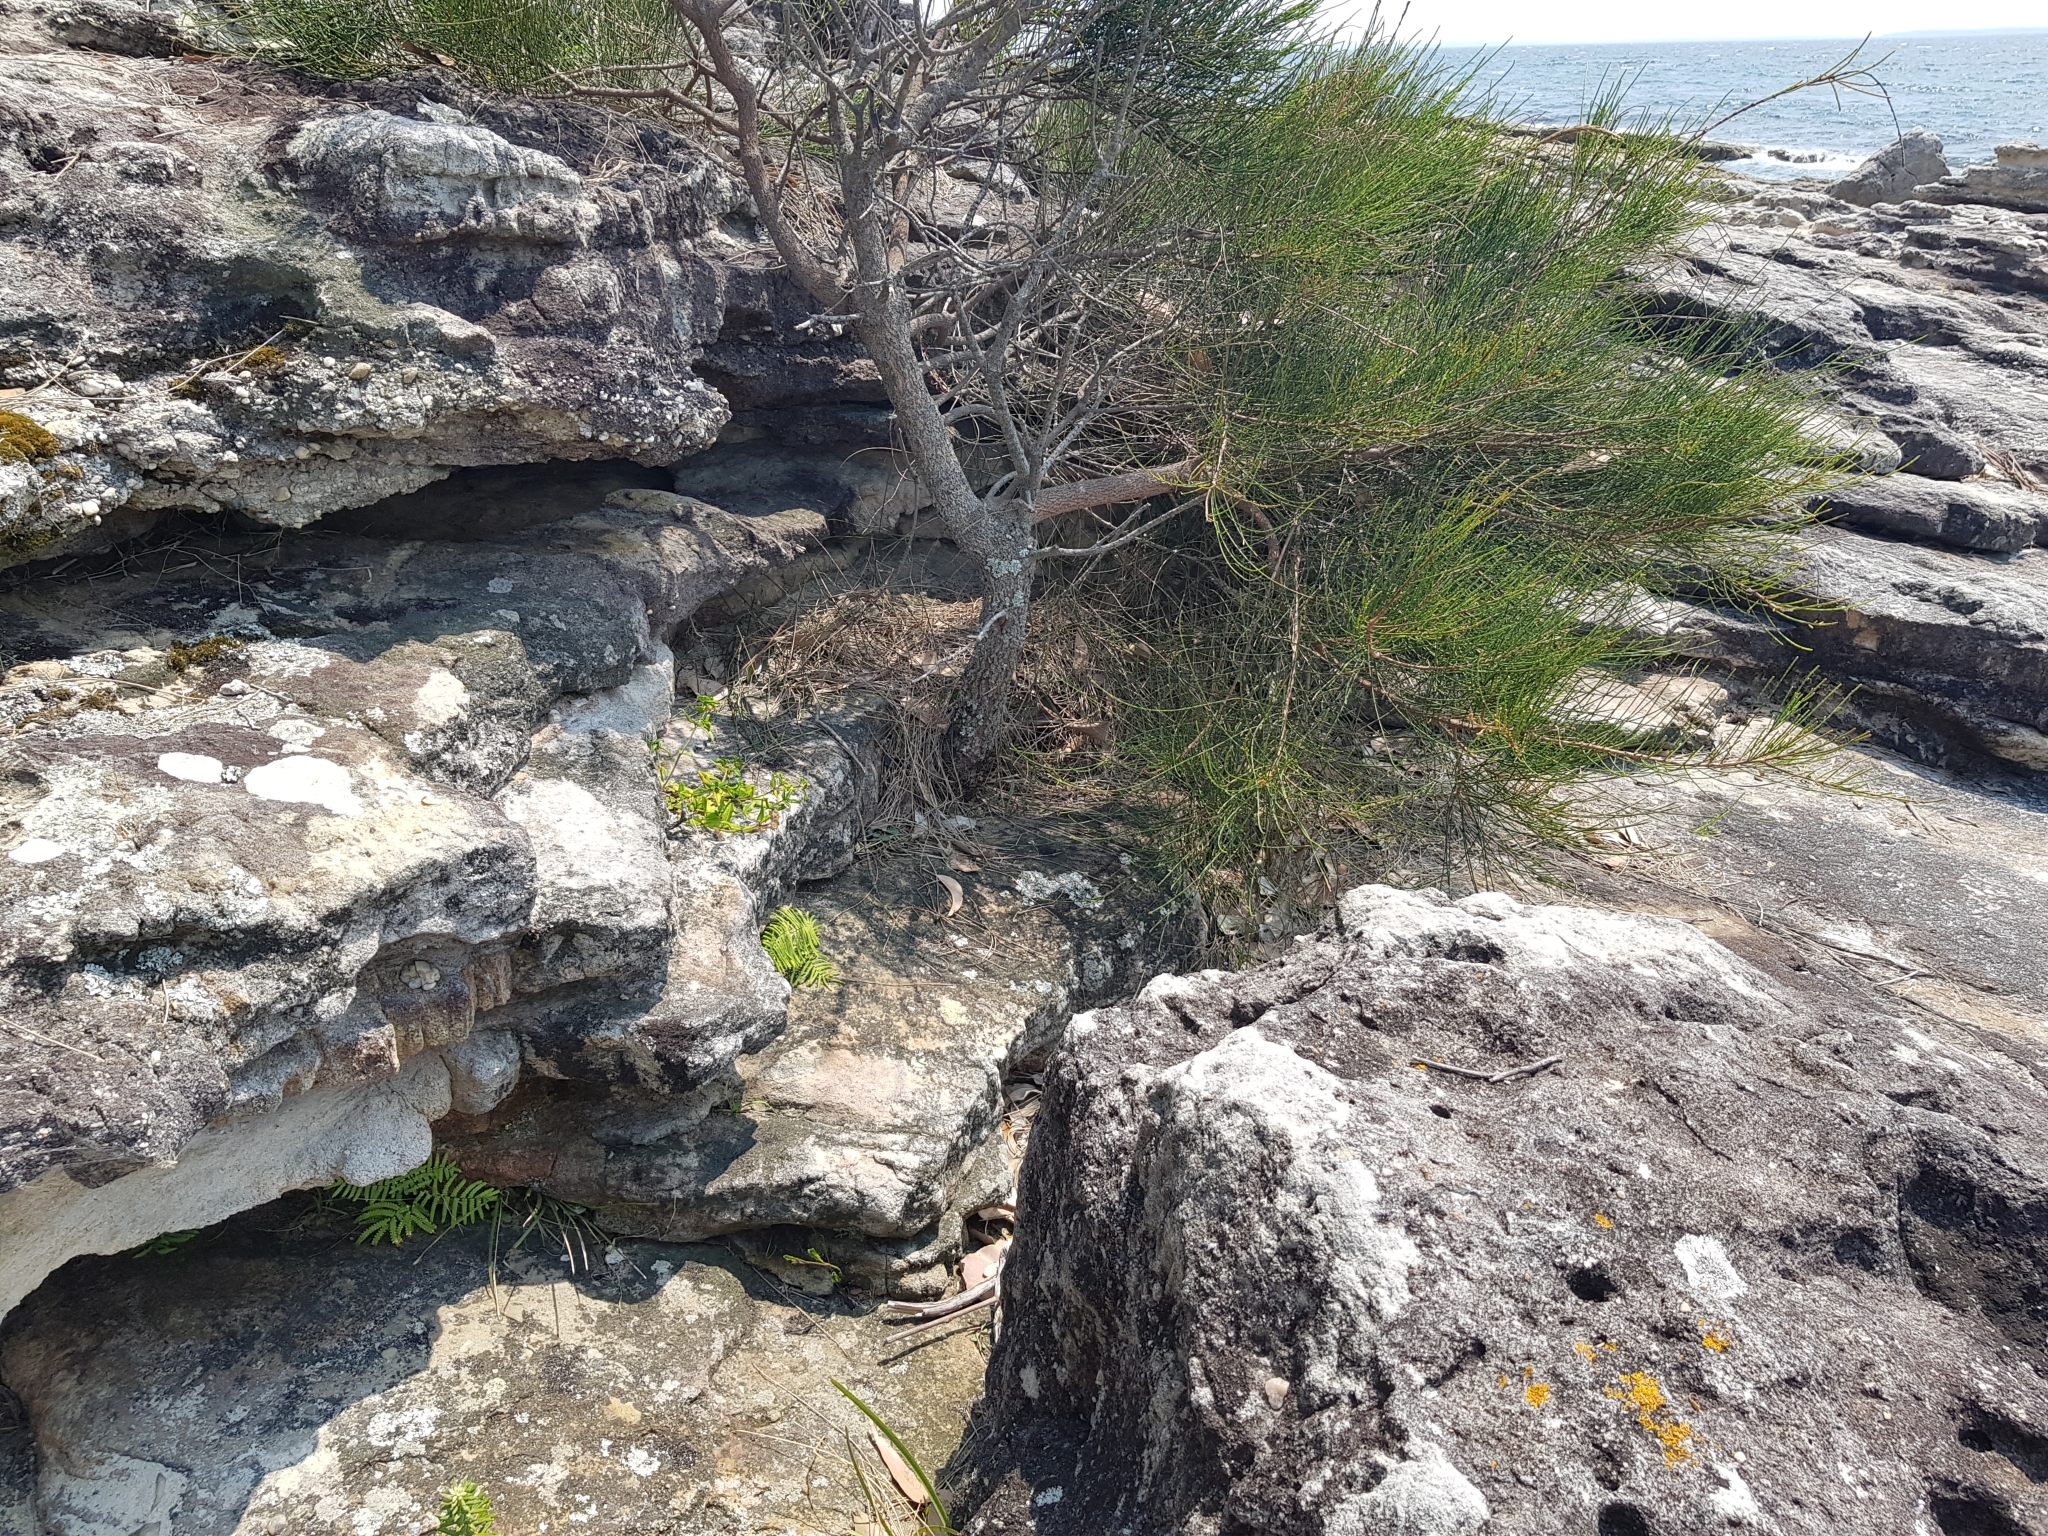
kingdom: Plantae
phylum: Tracheophyta
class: Polypodiopsida
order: Gleicheniales
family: Gleicheniaceae
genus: Gleichenia
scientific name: Gleichenia rupestris
